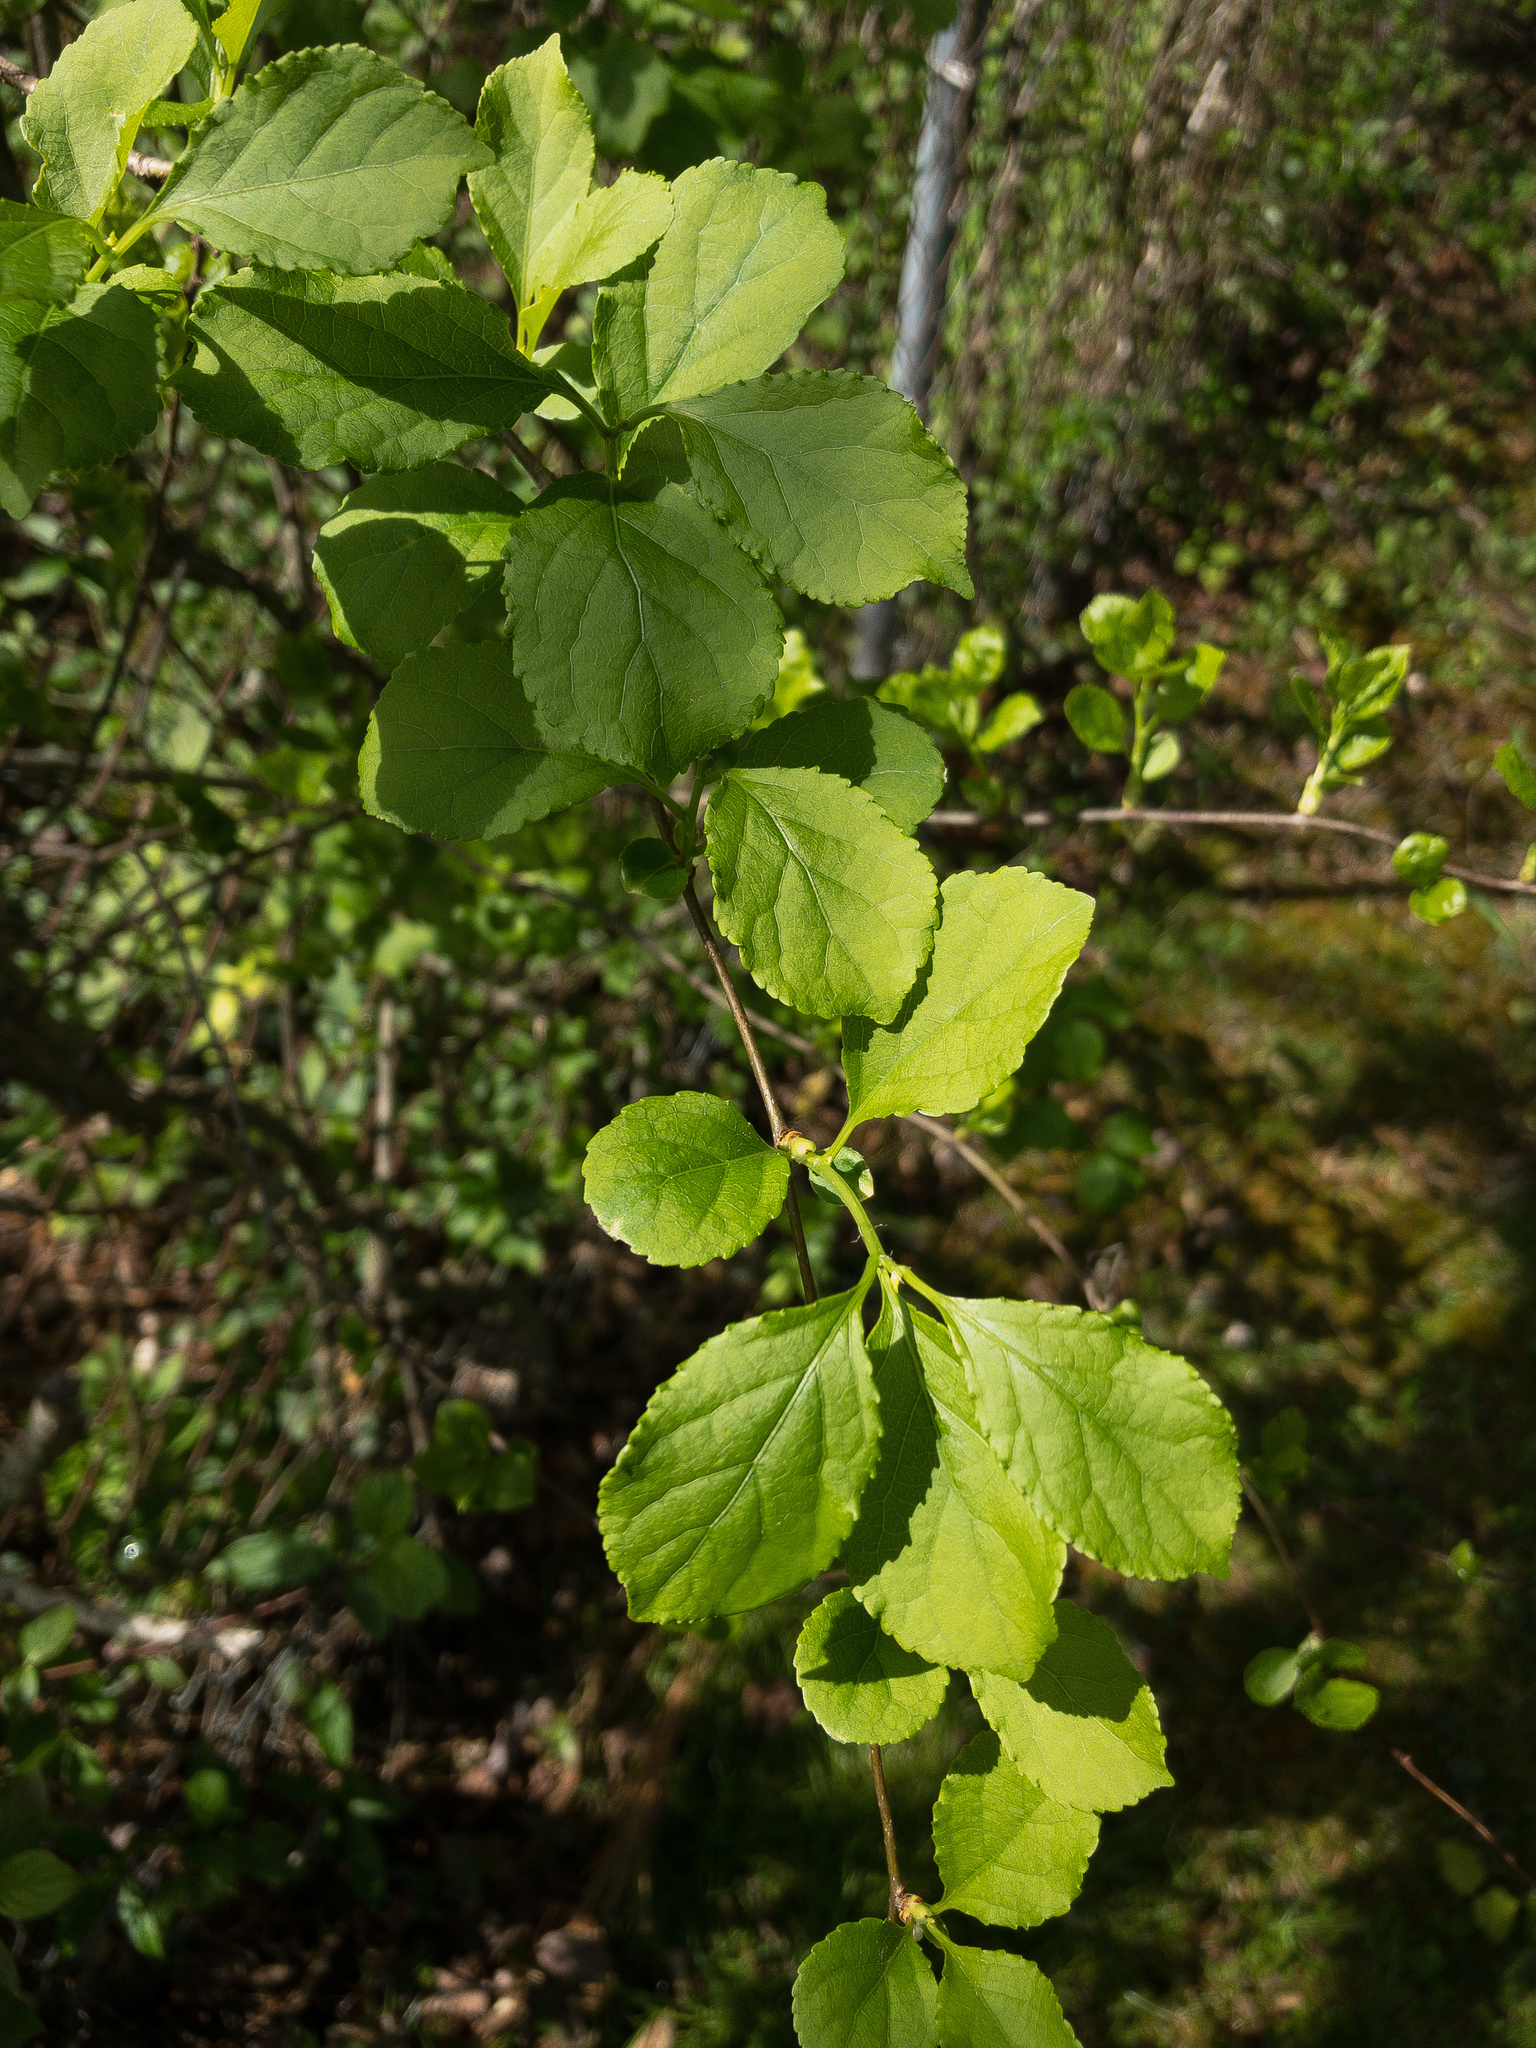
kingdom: Plantae
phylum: Tracheophyta
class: Magnoliopsida
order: Celastrales
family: Celastraceae
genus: Celastrus
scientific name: Celastrus orbiculatus
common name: Oriental bittersweet
